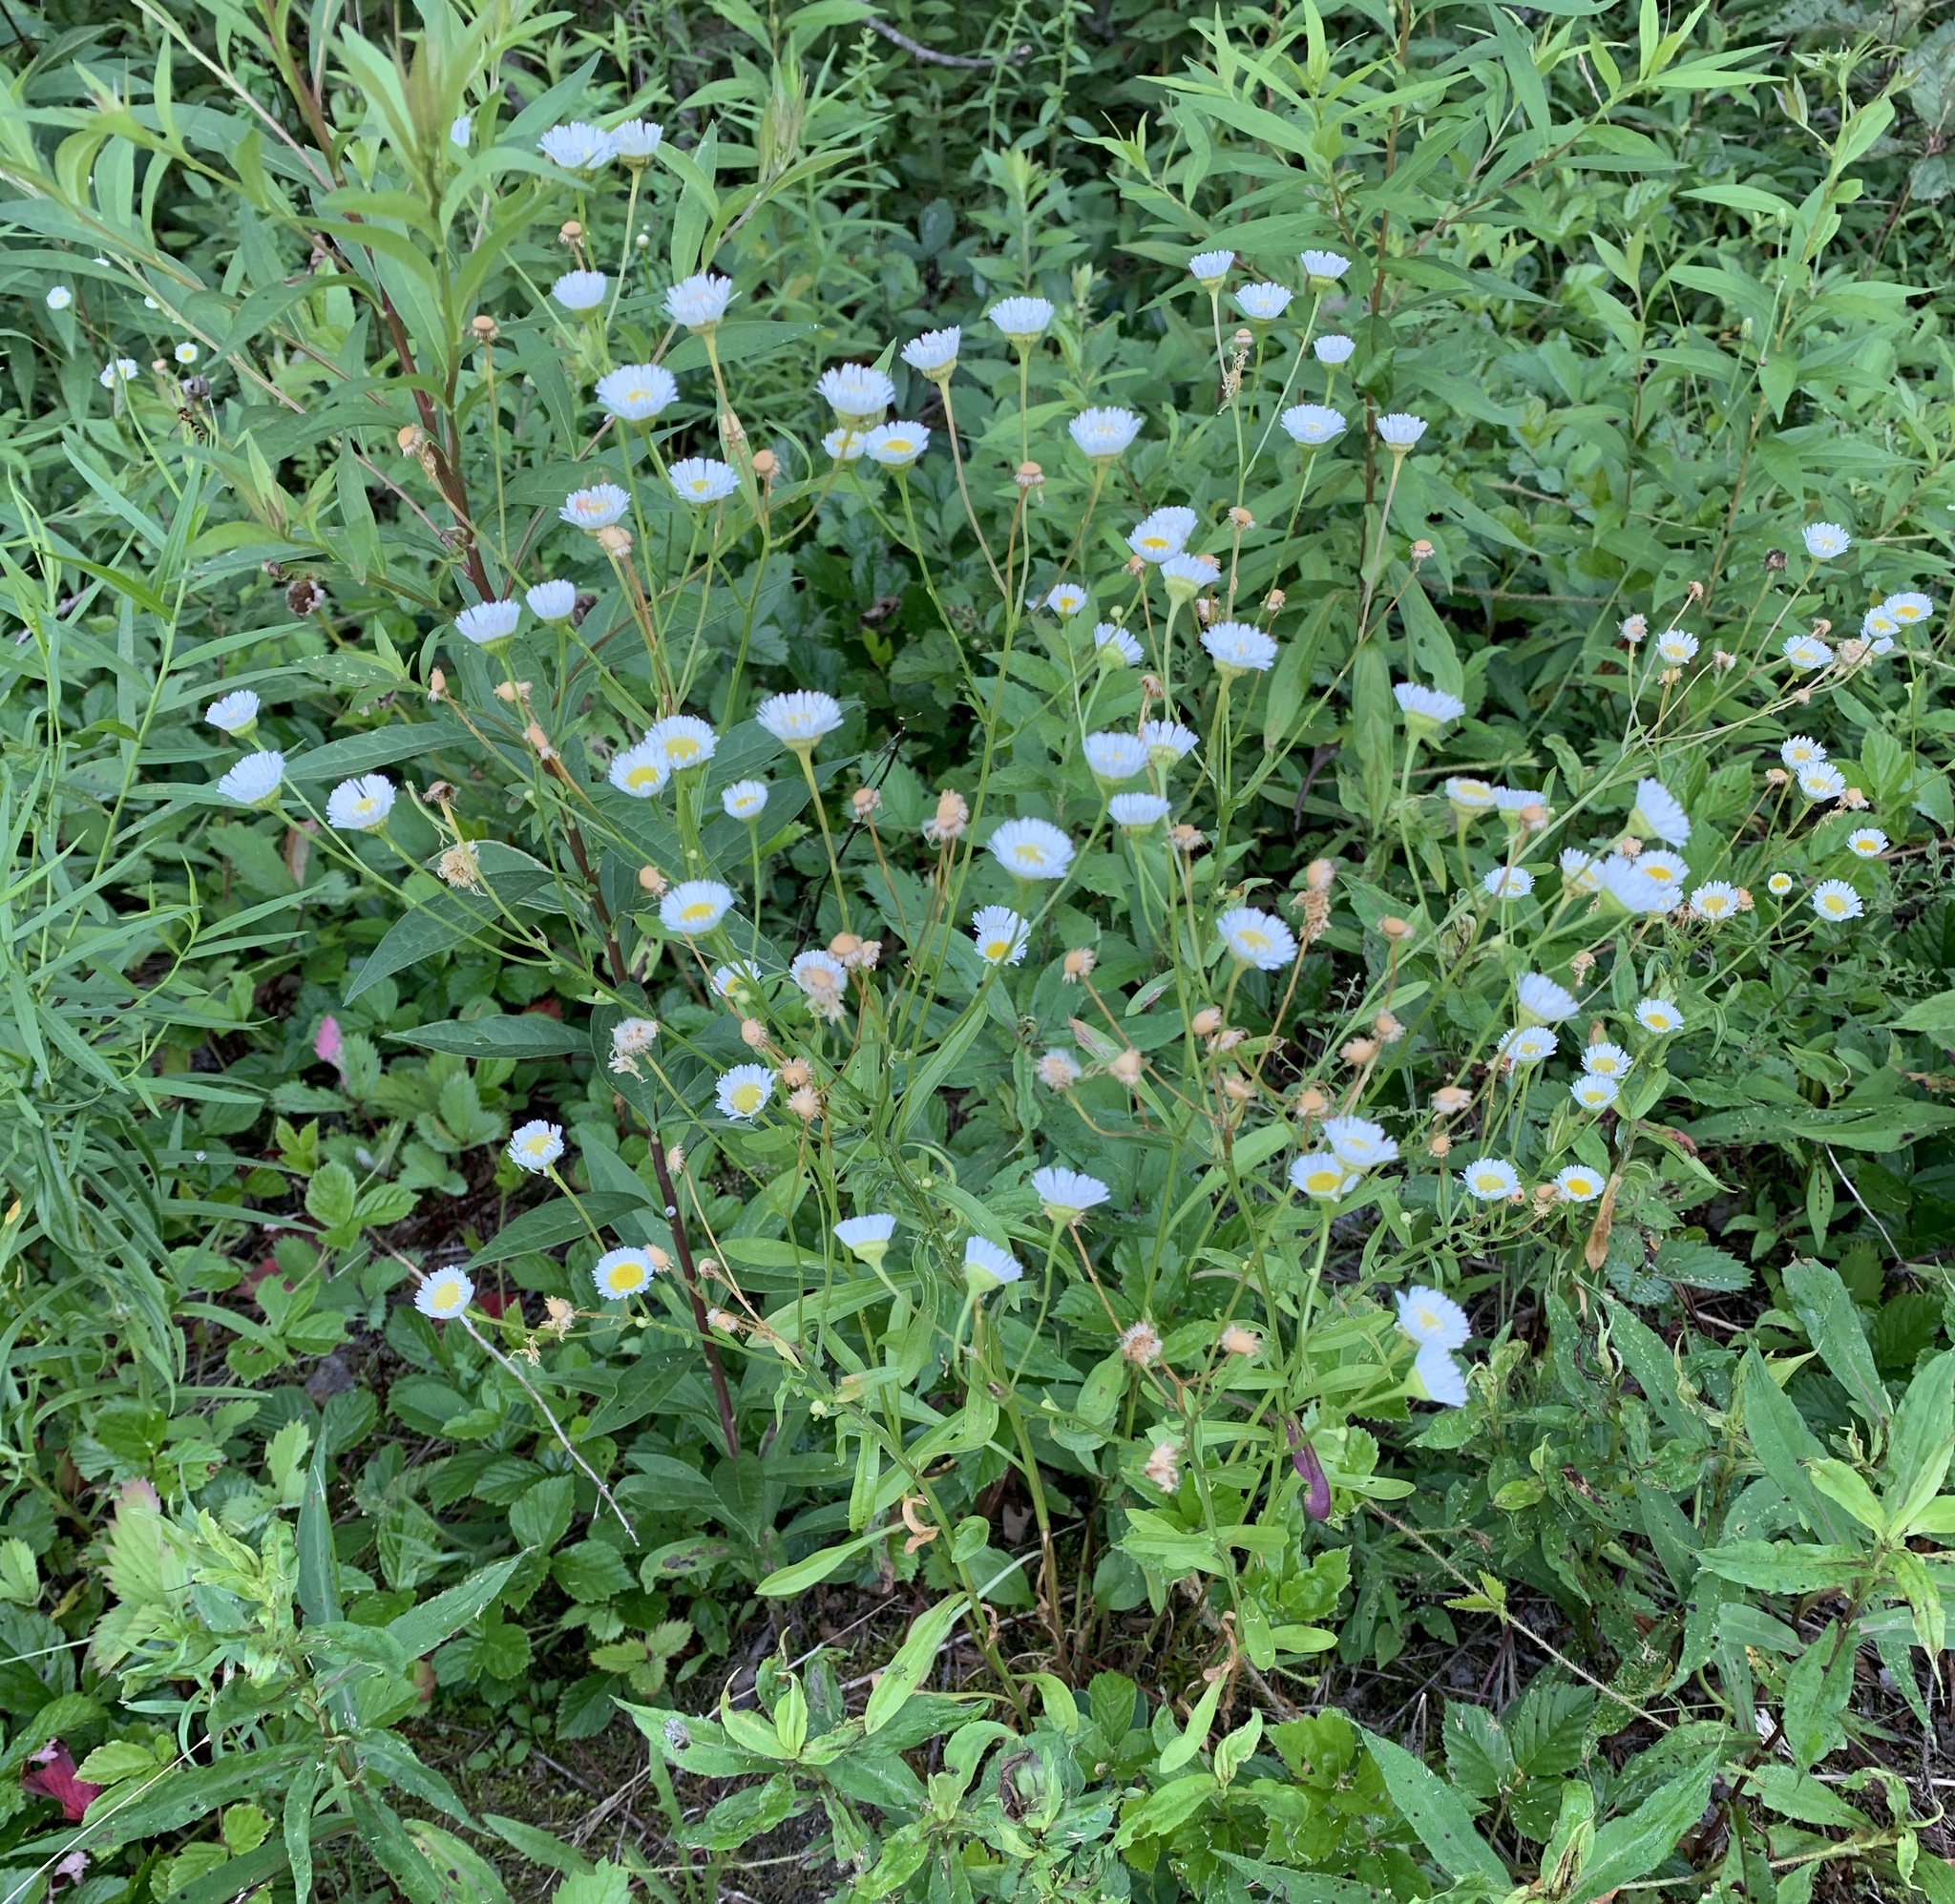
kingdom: Plantae
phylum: Tracheophyta
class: Magnoliopsida
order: Asterales
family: Asteraceae
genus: Erigeron
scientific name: Erigeron strigosus
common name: Common eastern fleabane
